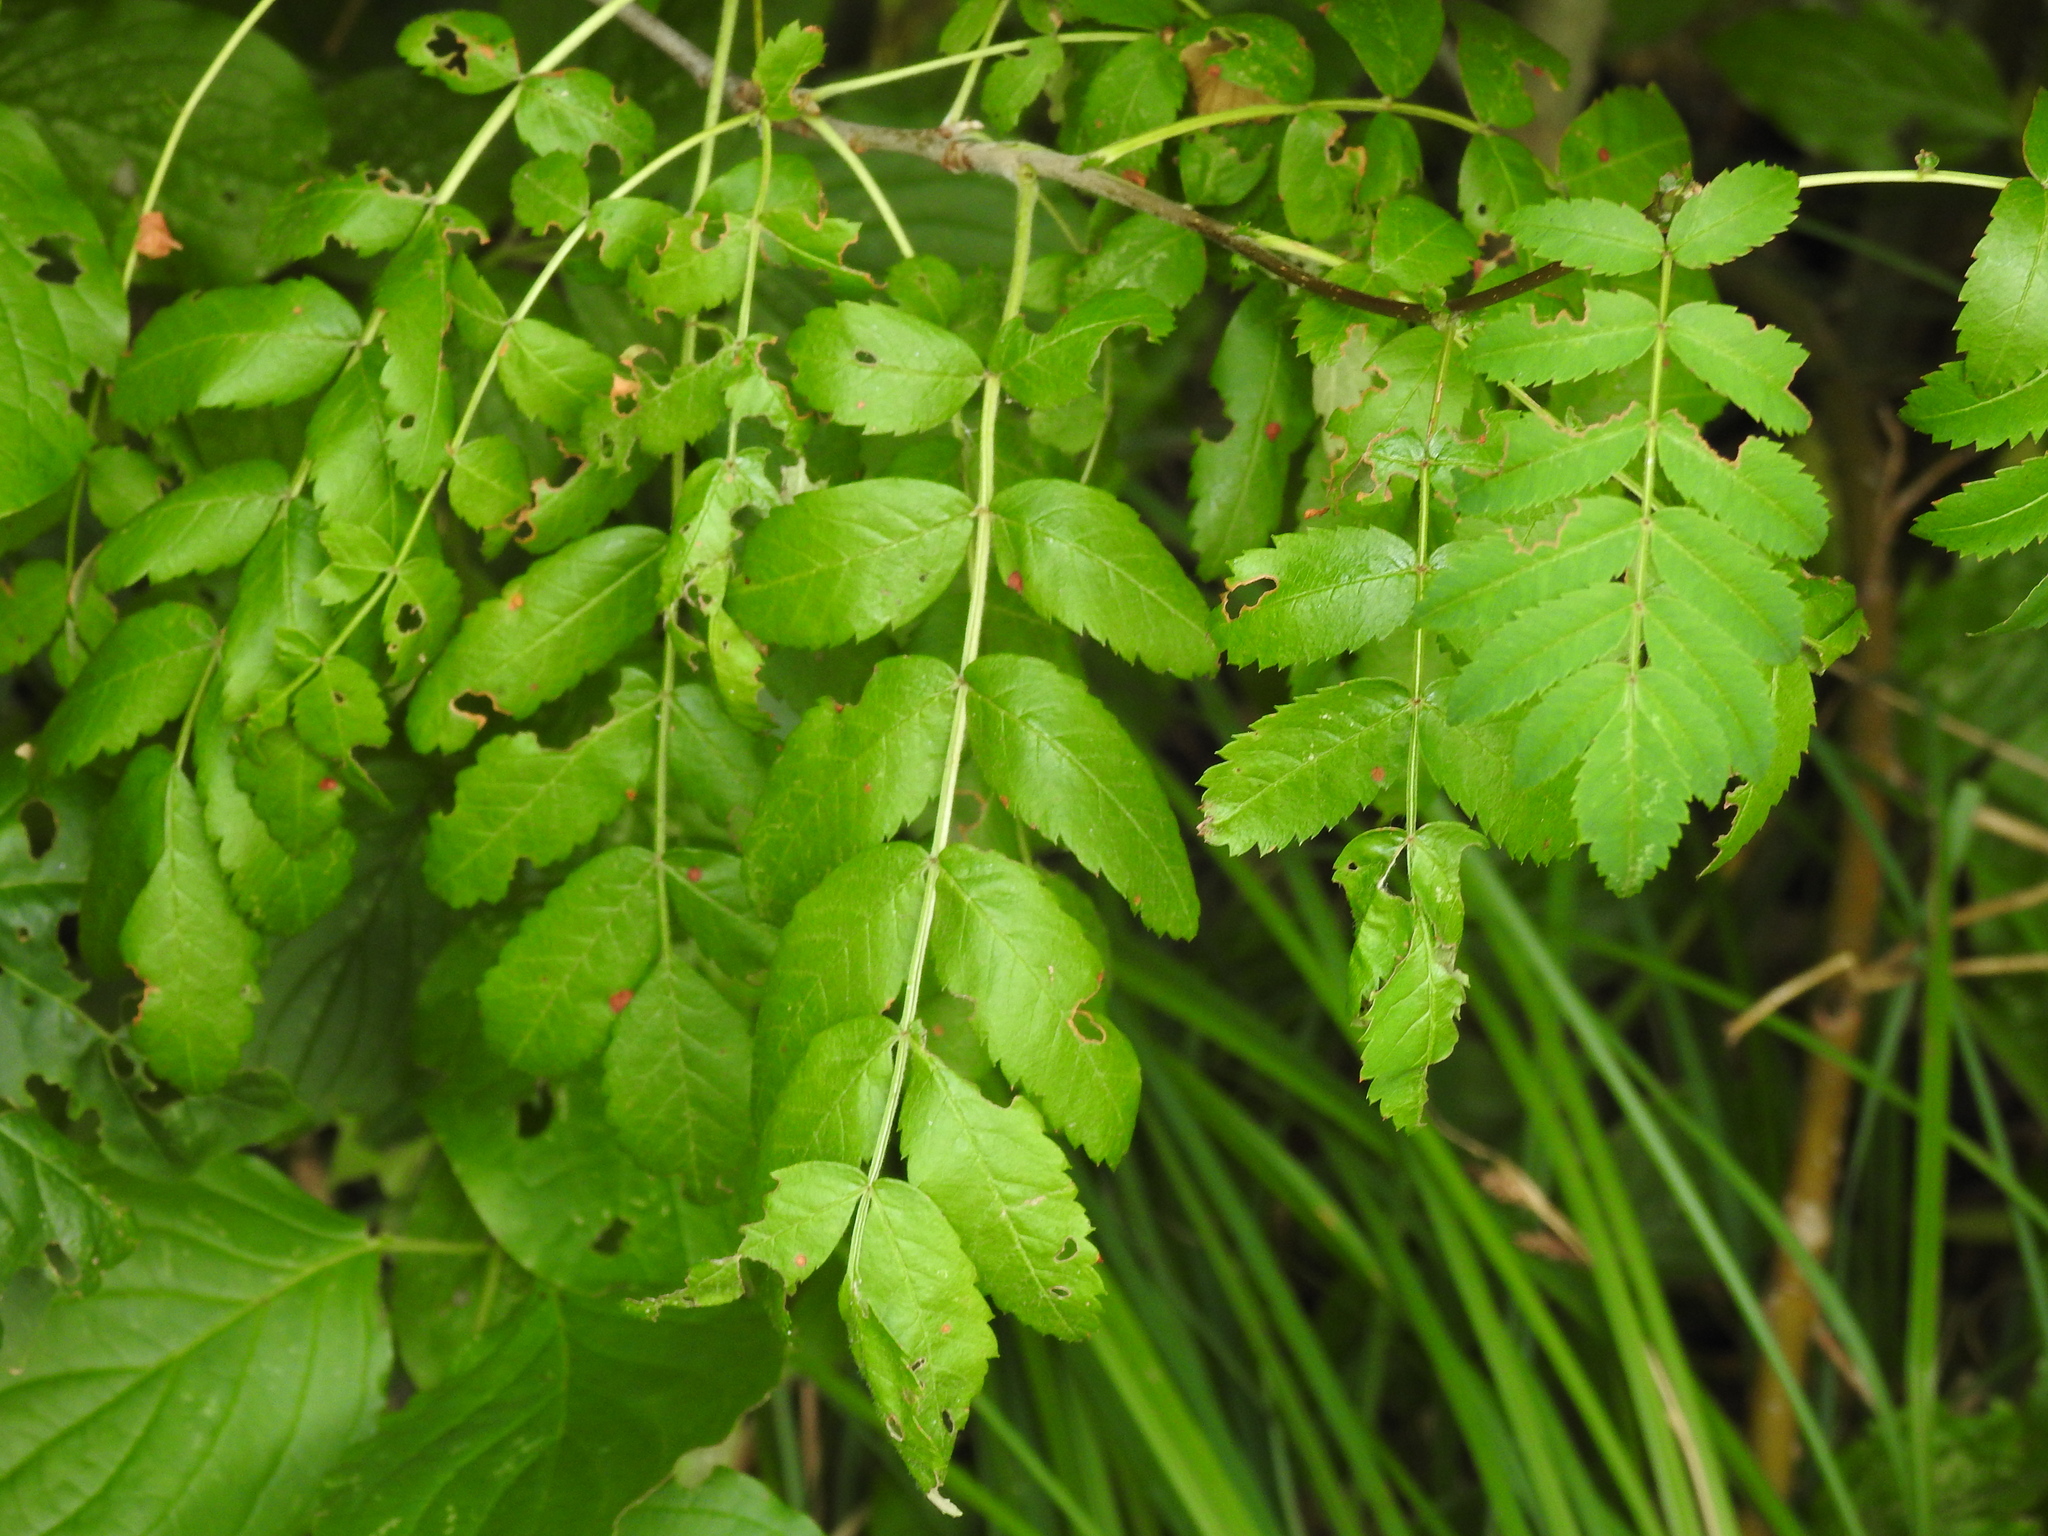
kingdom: Plantae
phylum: Tracheophyta
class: Magnoliopsida
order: Rosales
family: Rosaceae
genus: Sorbus
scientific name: Sorbus aucuparia
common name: Rowan
